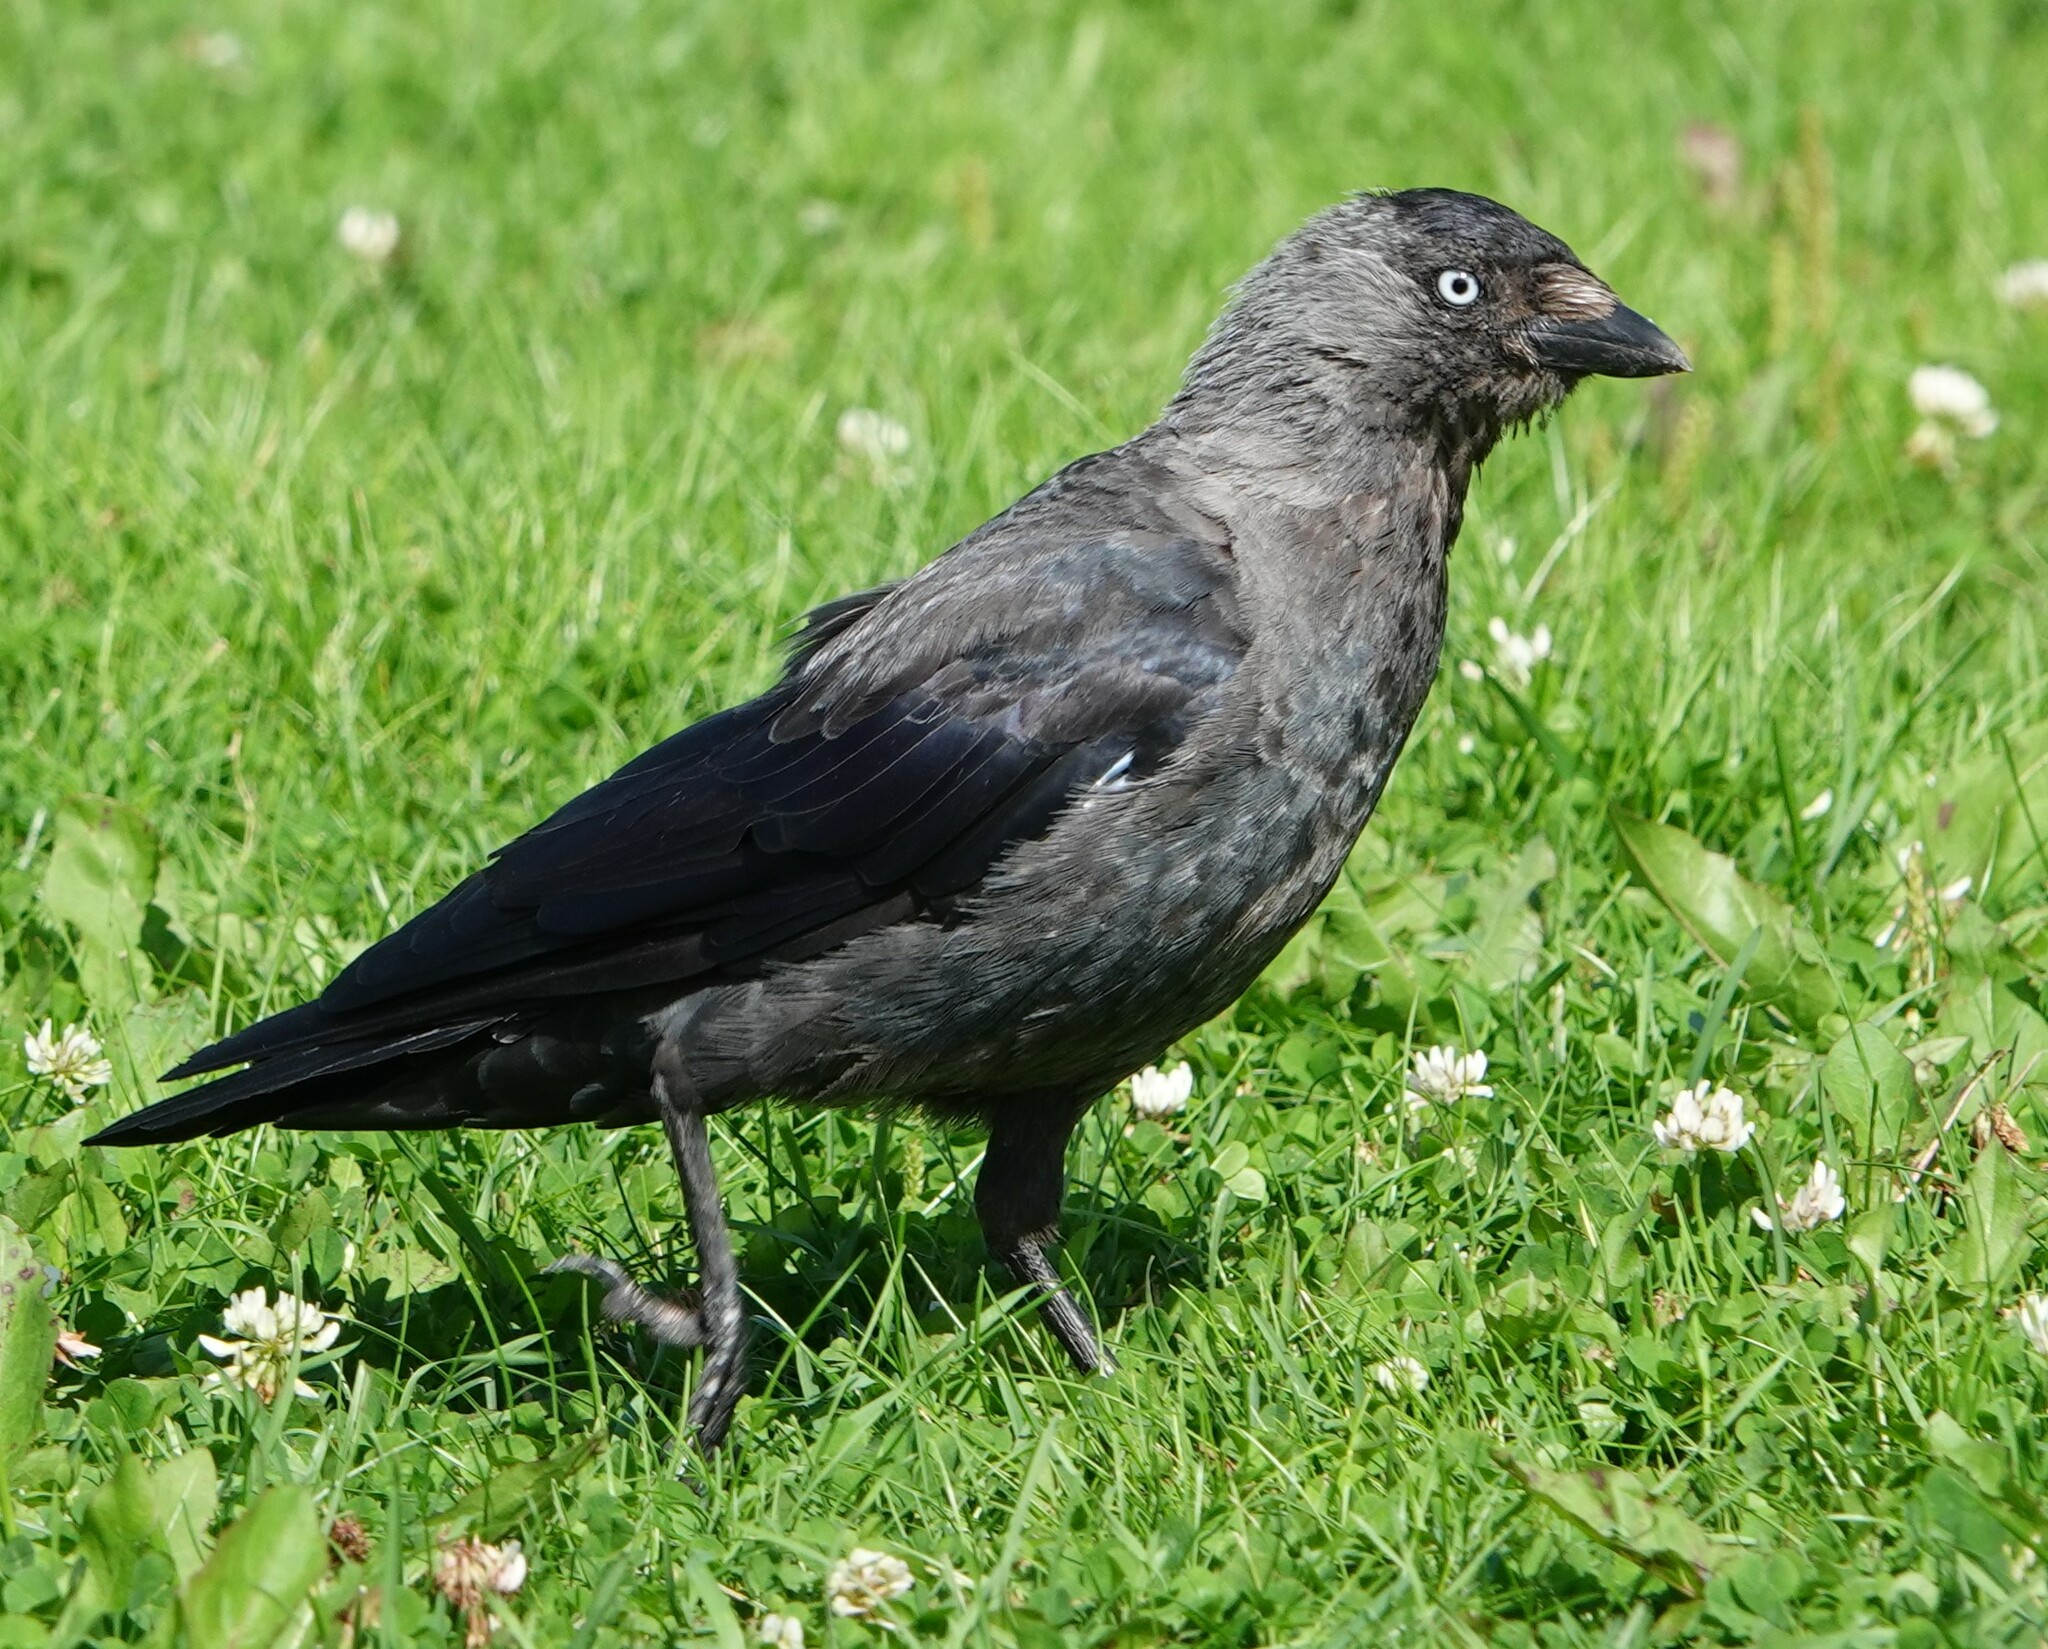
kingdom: Animalia
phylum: Chordata
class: Aves
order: Passeriformes
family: Corvidae
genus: Coloeus
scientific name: Coloeus monedula
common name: Western jackdaw
